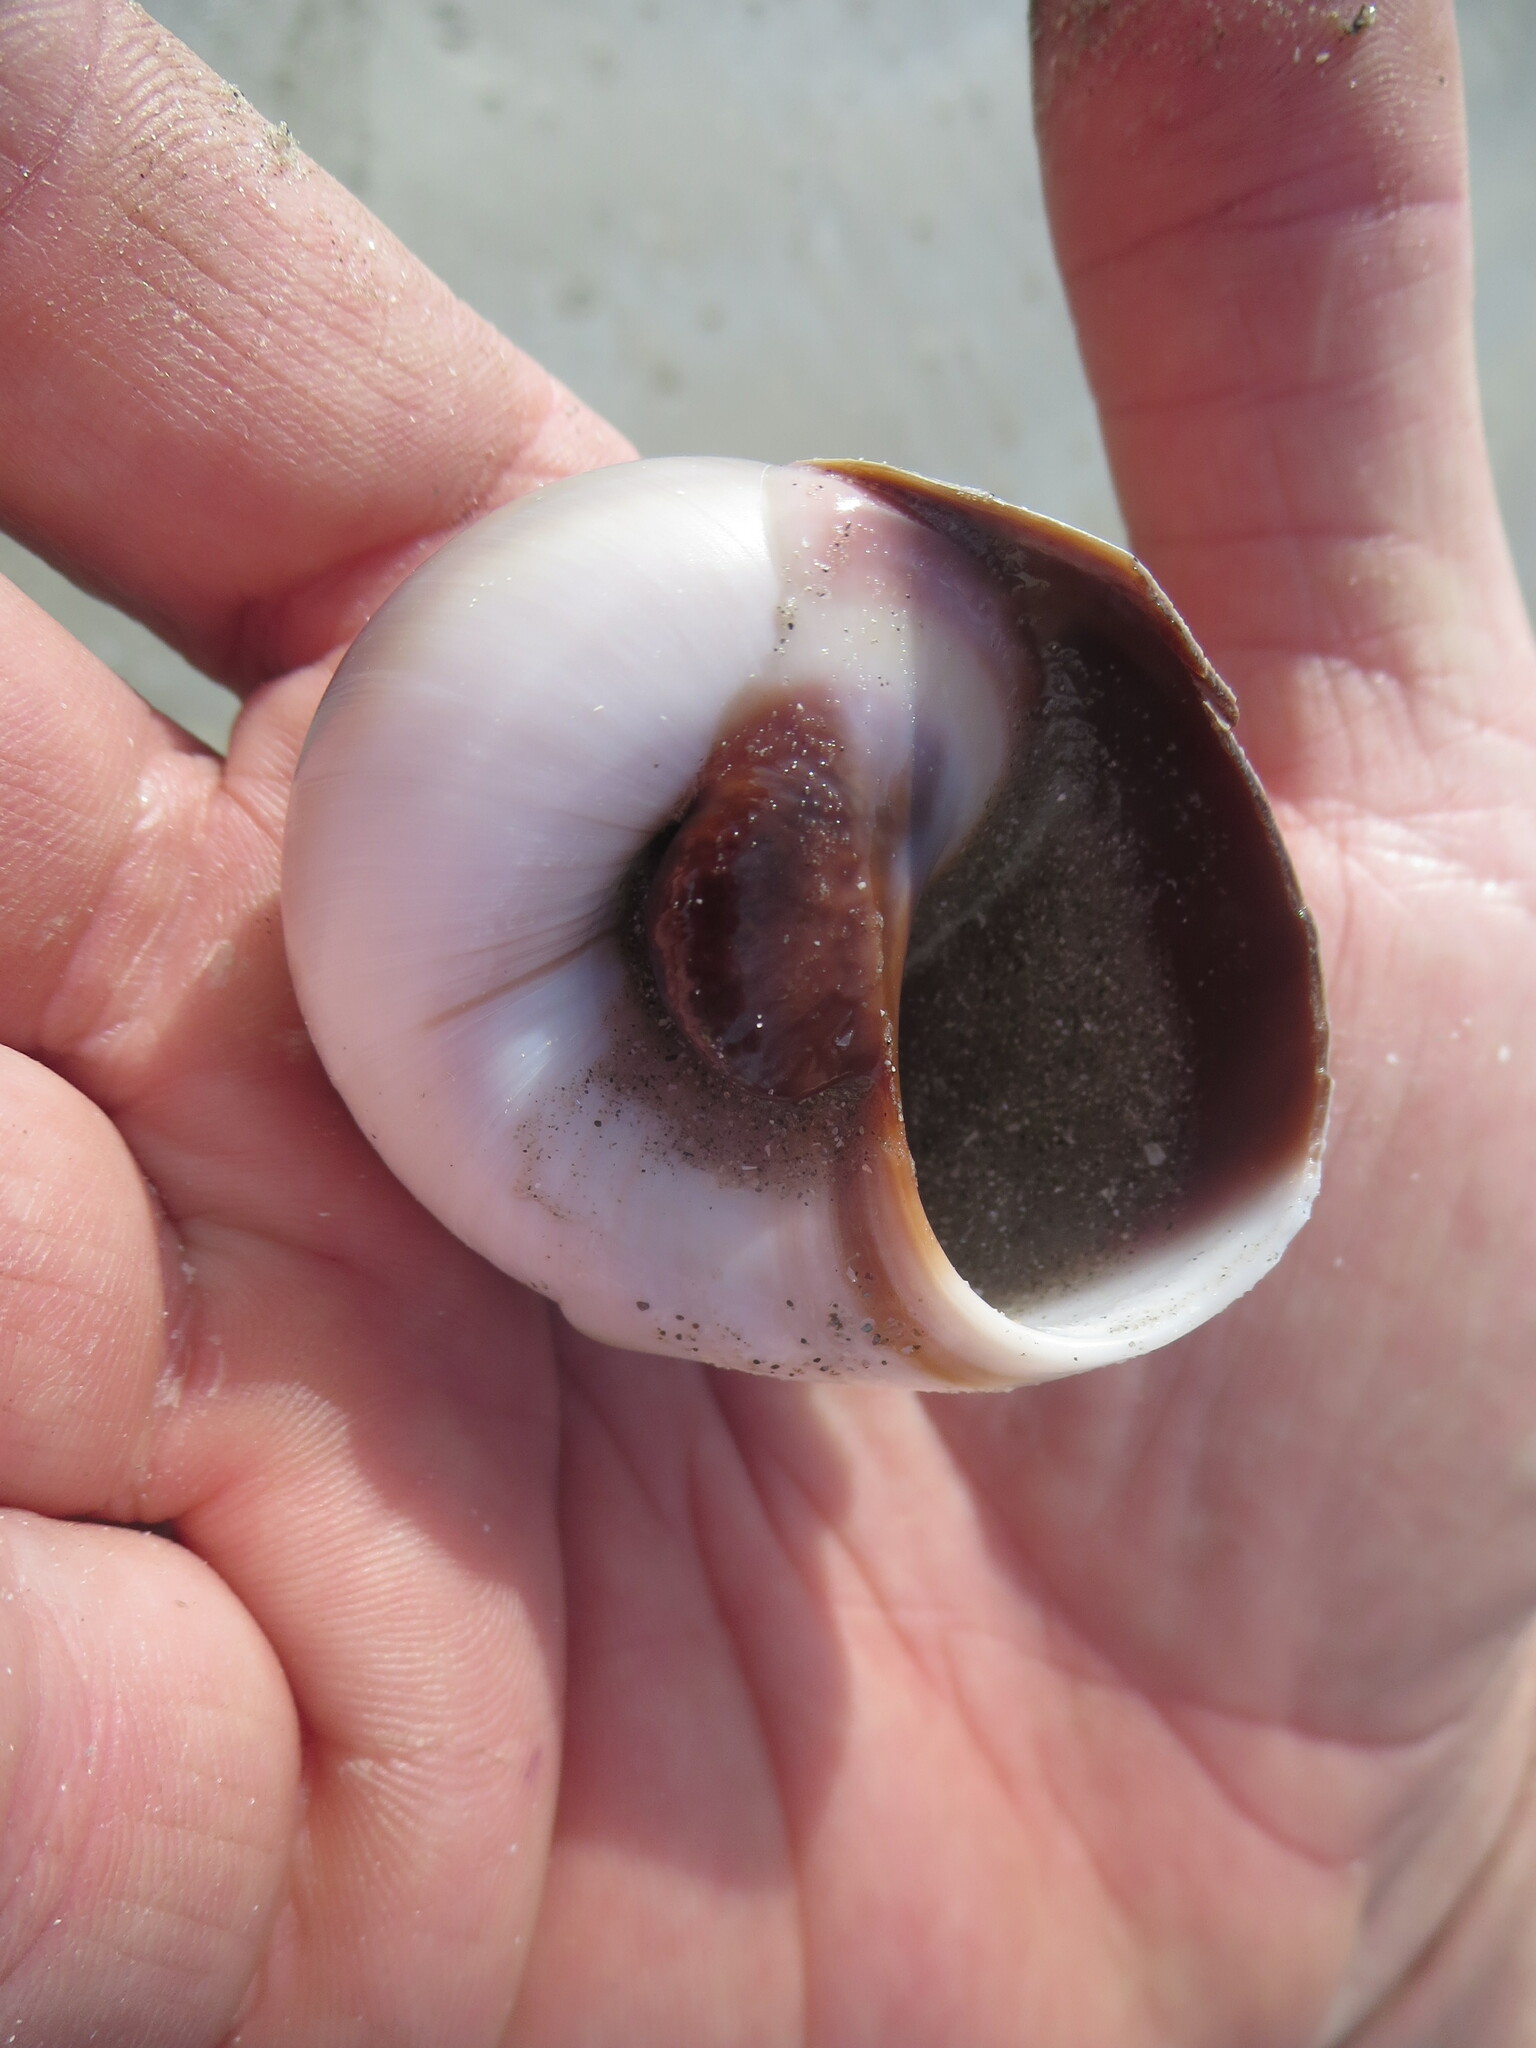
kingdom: Animalia
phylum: Mollusca
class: Gastropoda
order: Littorinimorpha
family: Naticidae
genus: Neverita
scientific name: Neverita duplicata
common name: Lobed moonsnail
